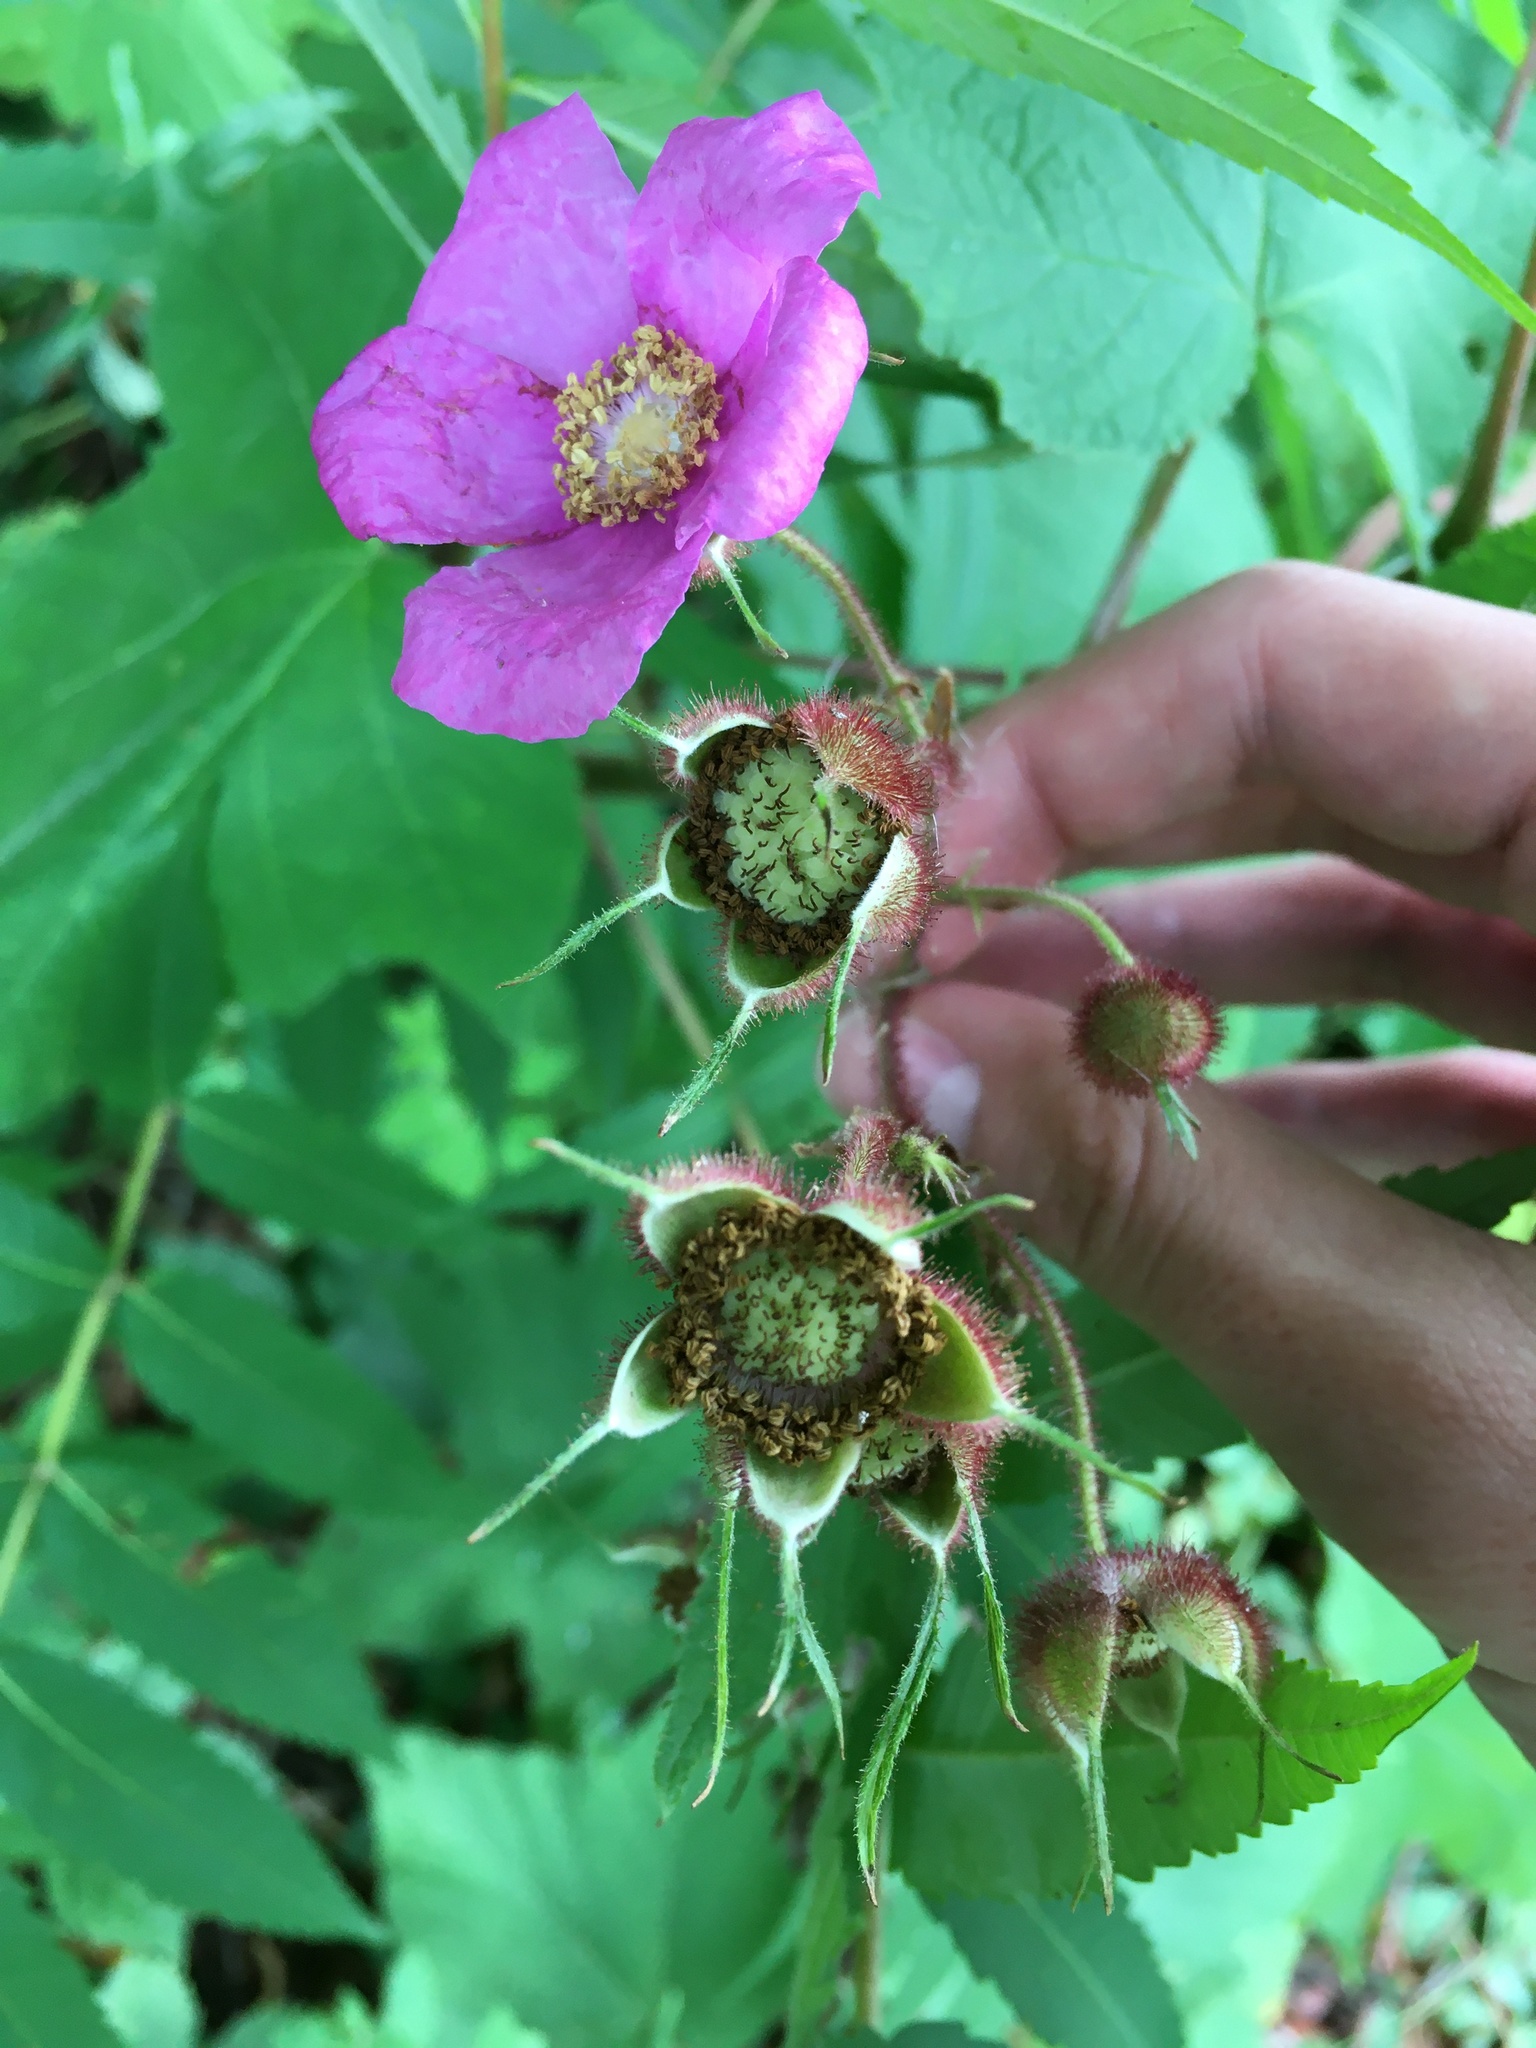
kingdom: Plantae
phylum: Tracheophyta
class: Magnoliopsida
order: Rosales
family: Rosaceae
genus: Rubus
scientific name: Rubus odoratus
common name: Purple-flowered raspberry
